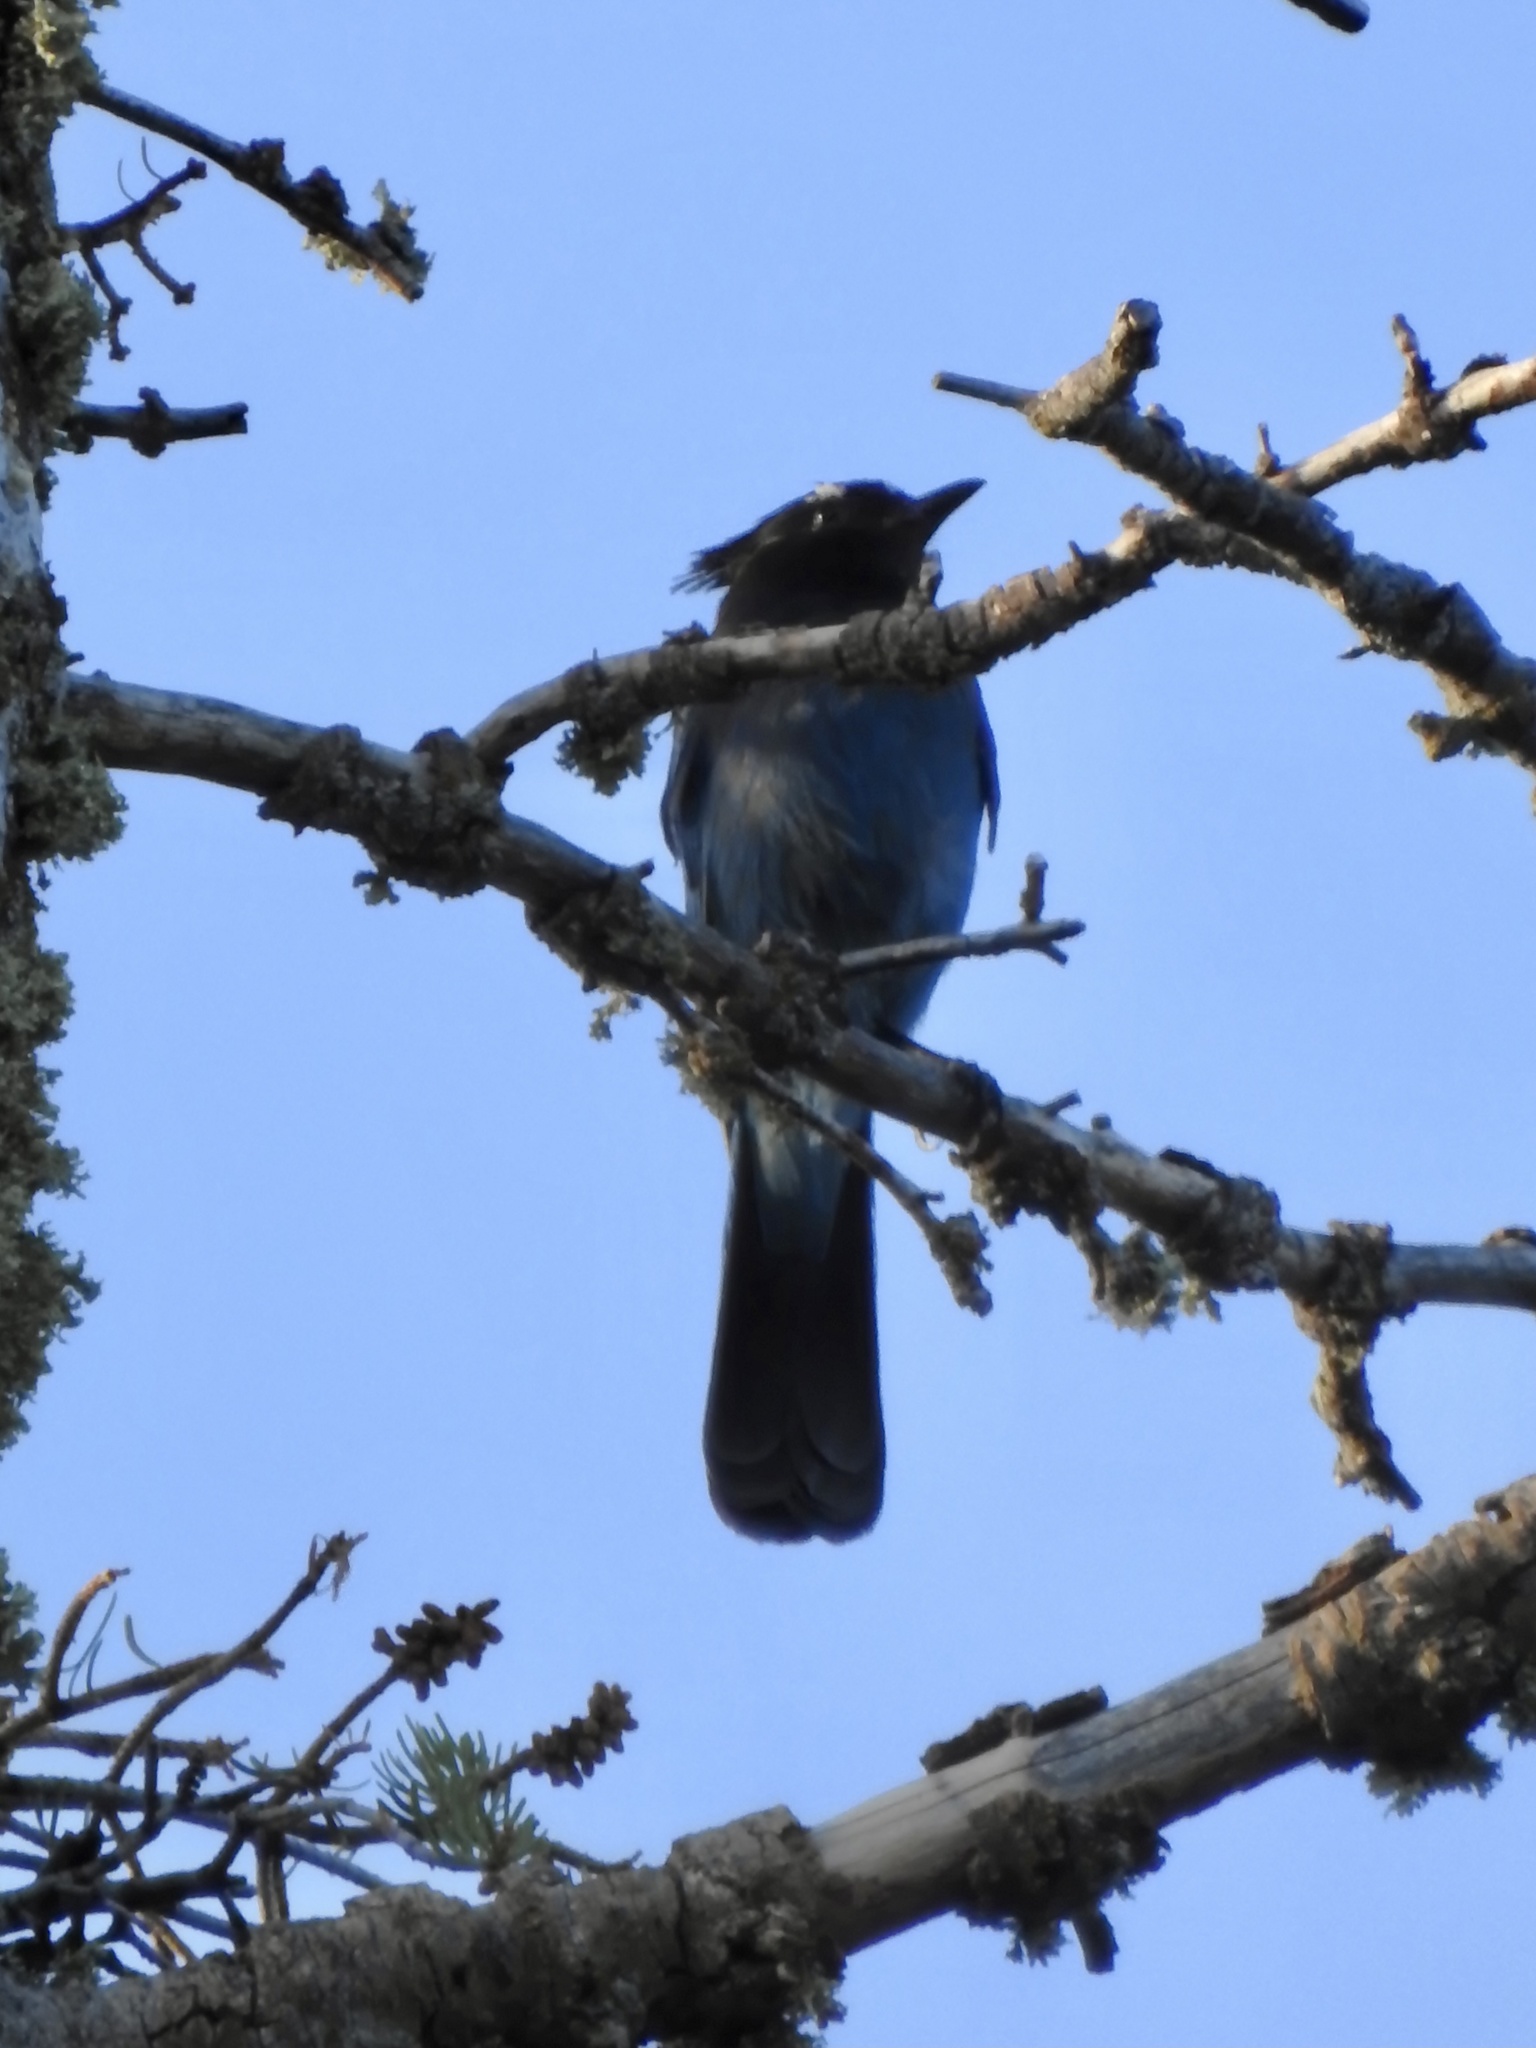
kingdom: Animalia
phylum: Chordata
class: Aves
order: Passeriformes
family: Corvidae
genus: Cyanocitta
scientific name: Cyanocitta stelleri
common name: Steller's jay
